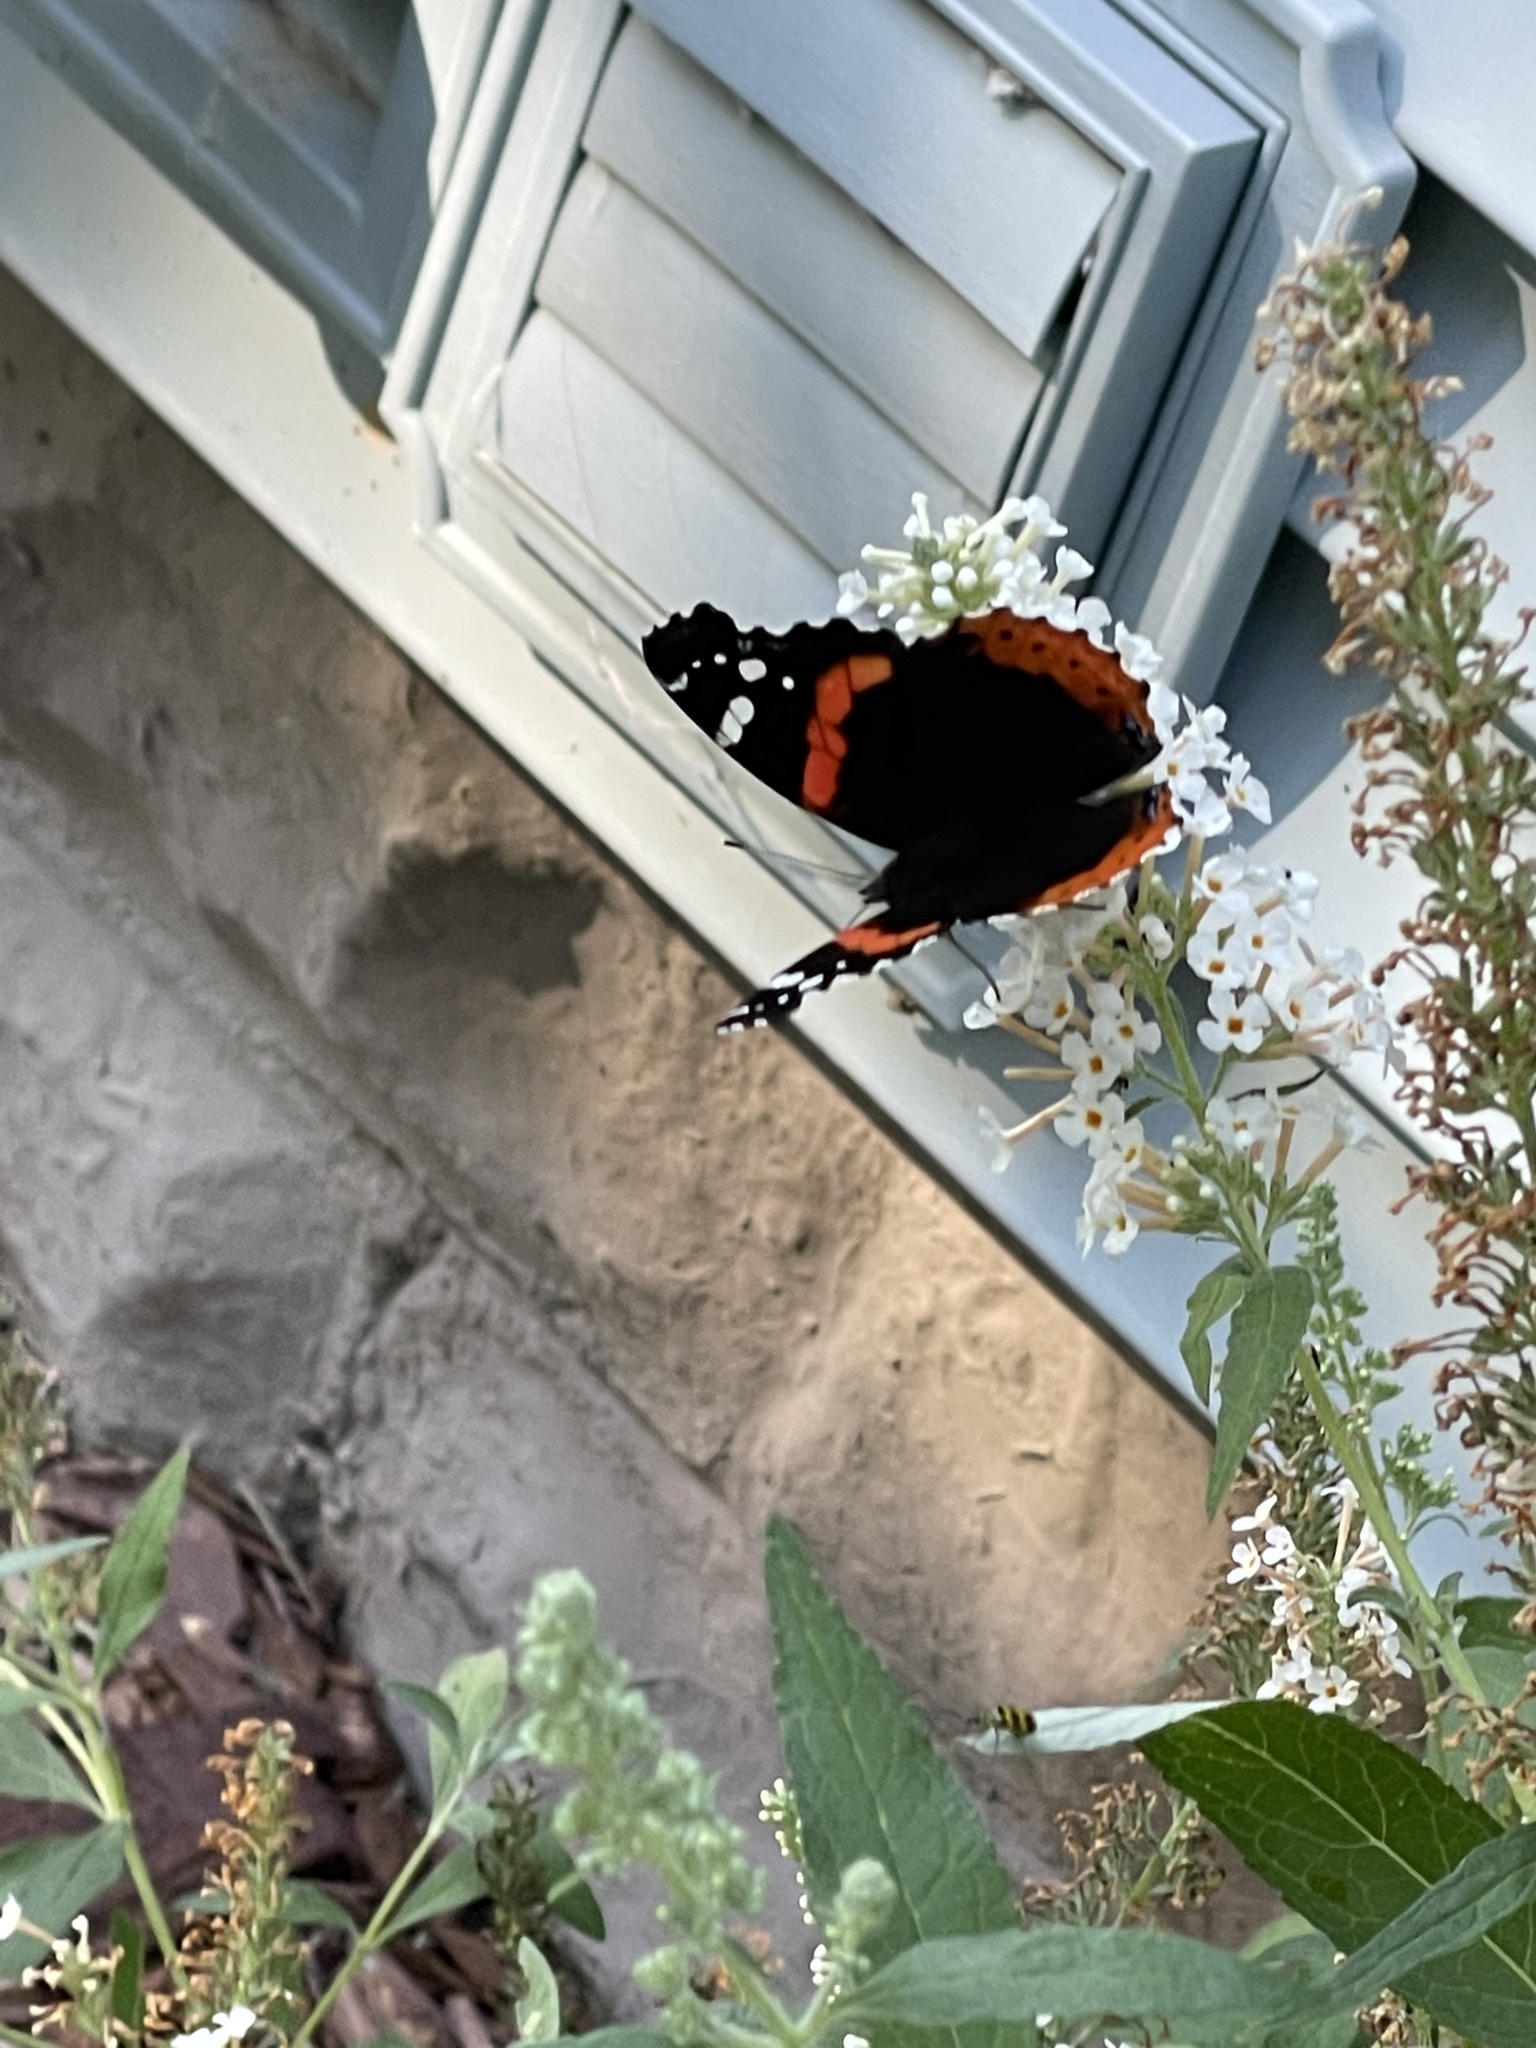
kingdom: Animalia
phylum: Arthropoda
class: Insecta
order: Lepidoptera
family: Nymphalidae
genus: Vanessa
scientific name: Vanessa atalanta
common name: Red admiral
